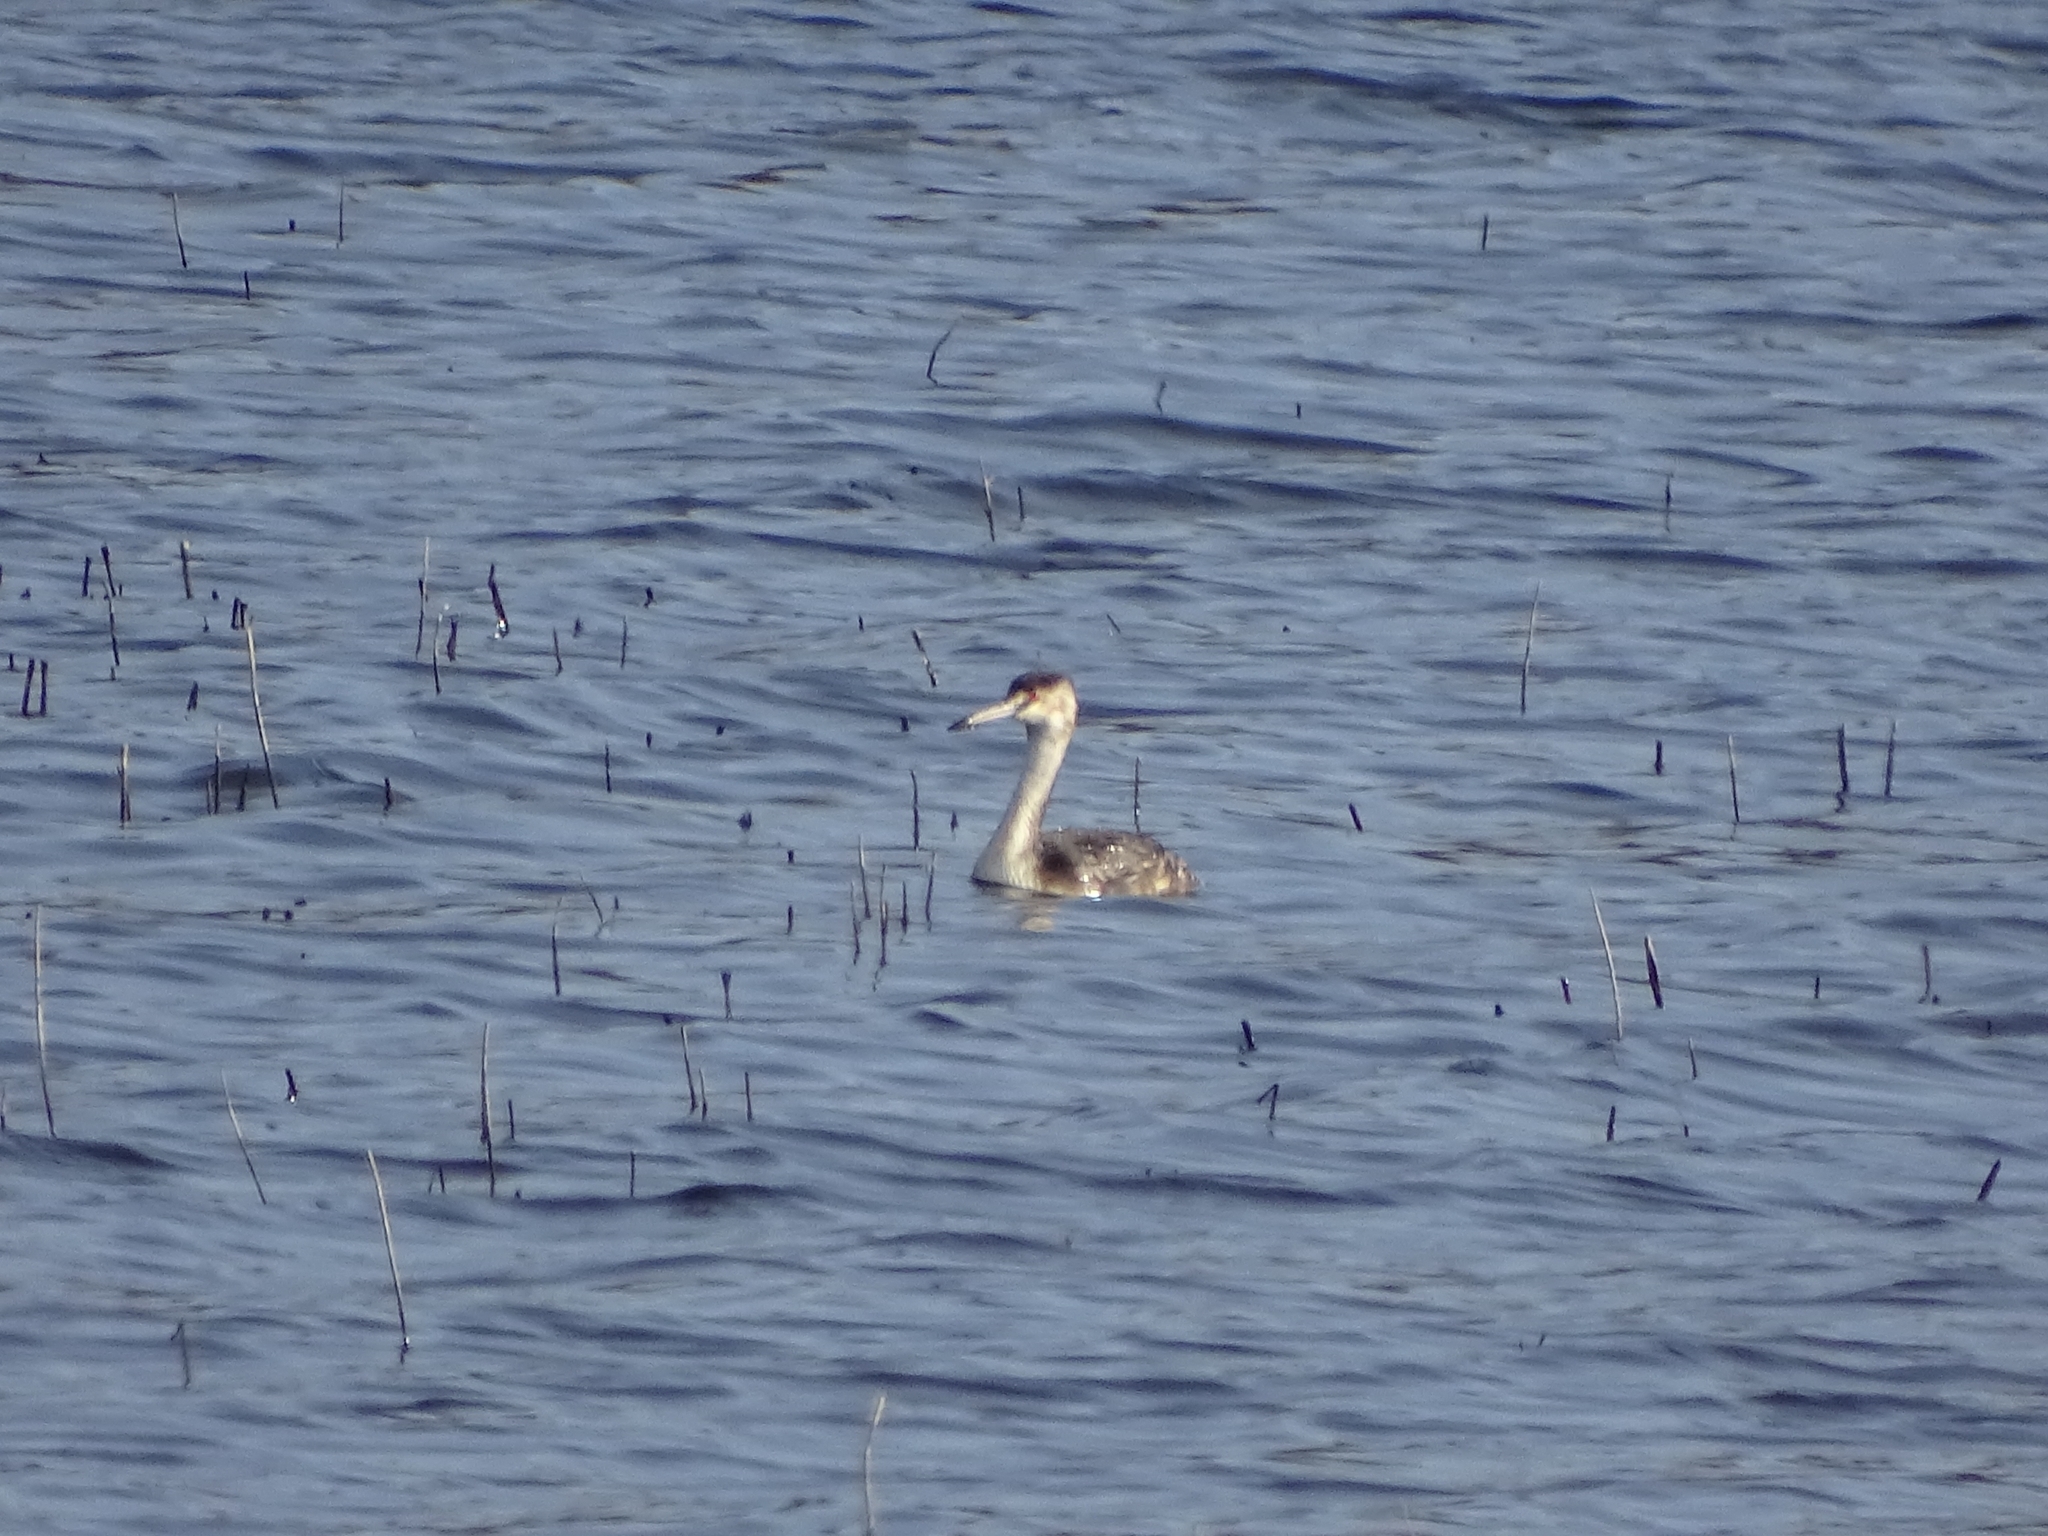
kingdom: Animalia
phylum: Chordata
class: Aves
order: Podicipediformes
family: Podicipedidae
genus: Podiceps
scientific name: Podiceps cristatus
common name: Great crested grebe
